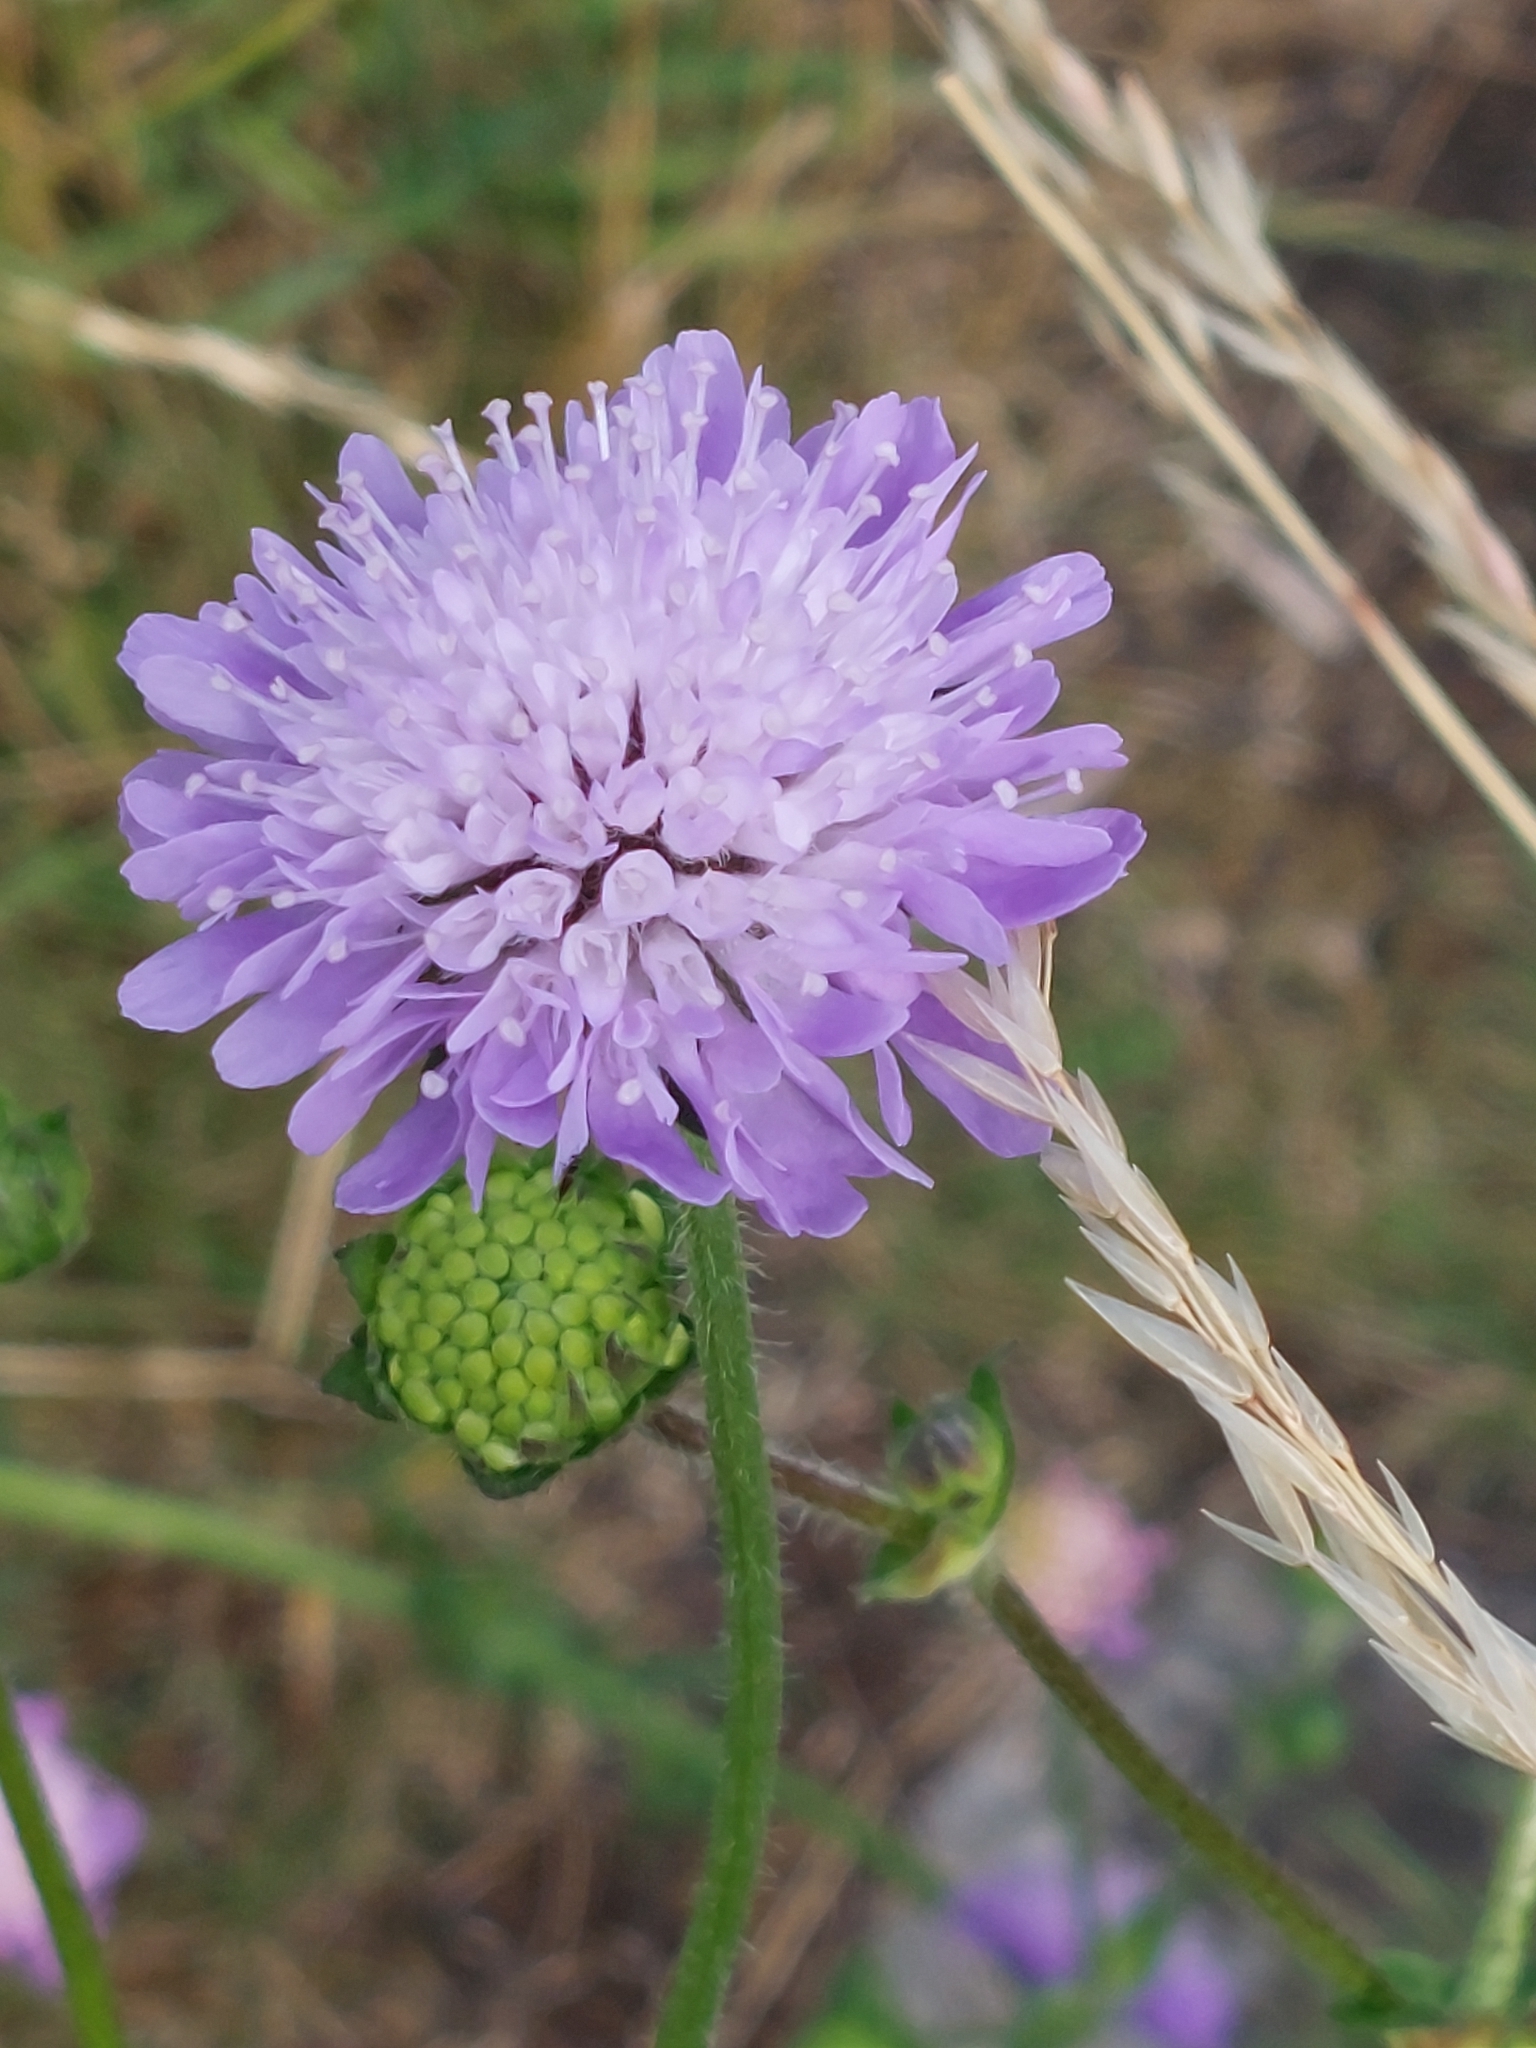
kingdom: Plantae
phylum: Tracheophyta
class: Magnoliopsida
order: Dipsacales
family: Caprifoliaceae
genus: Knautia
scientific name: Knautia arvensis
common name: Field scabiosa
